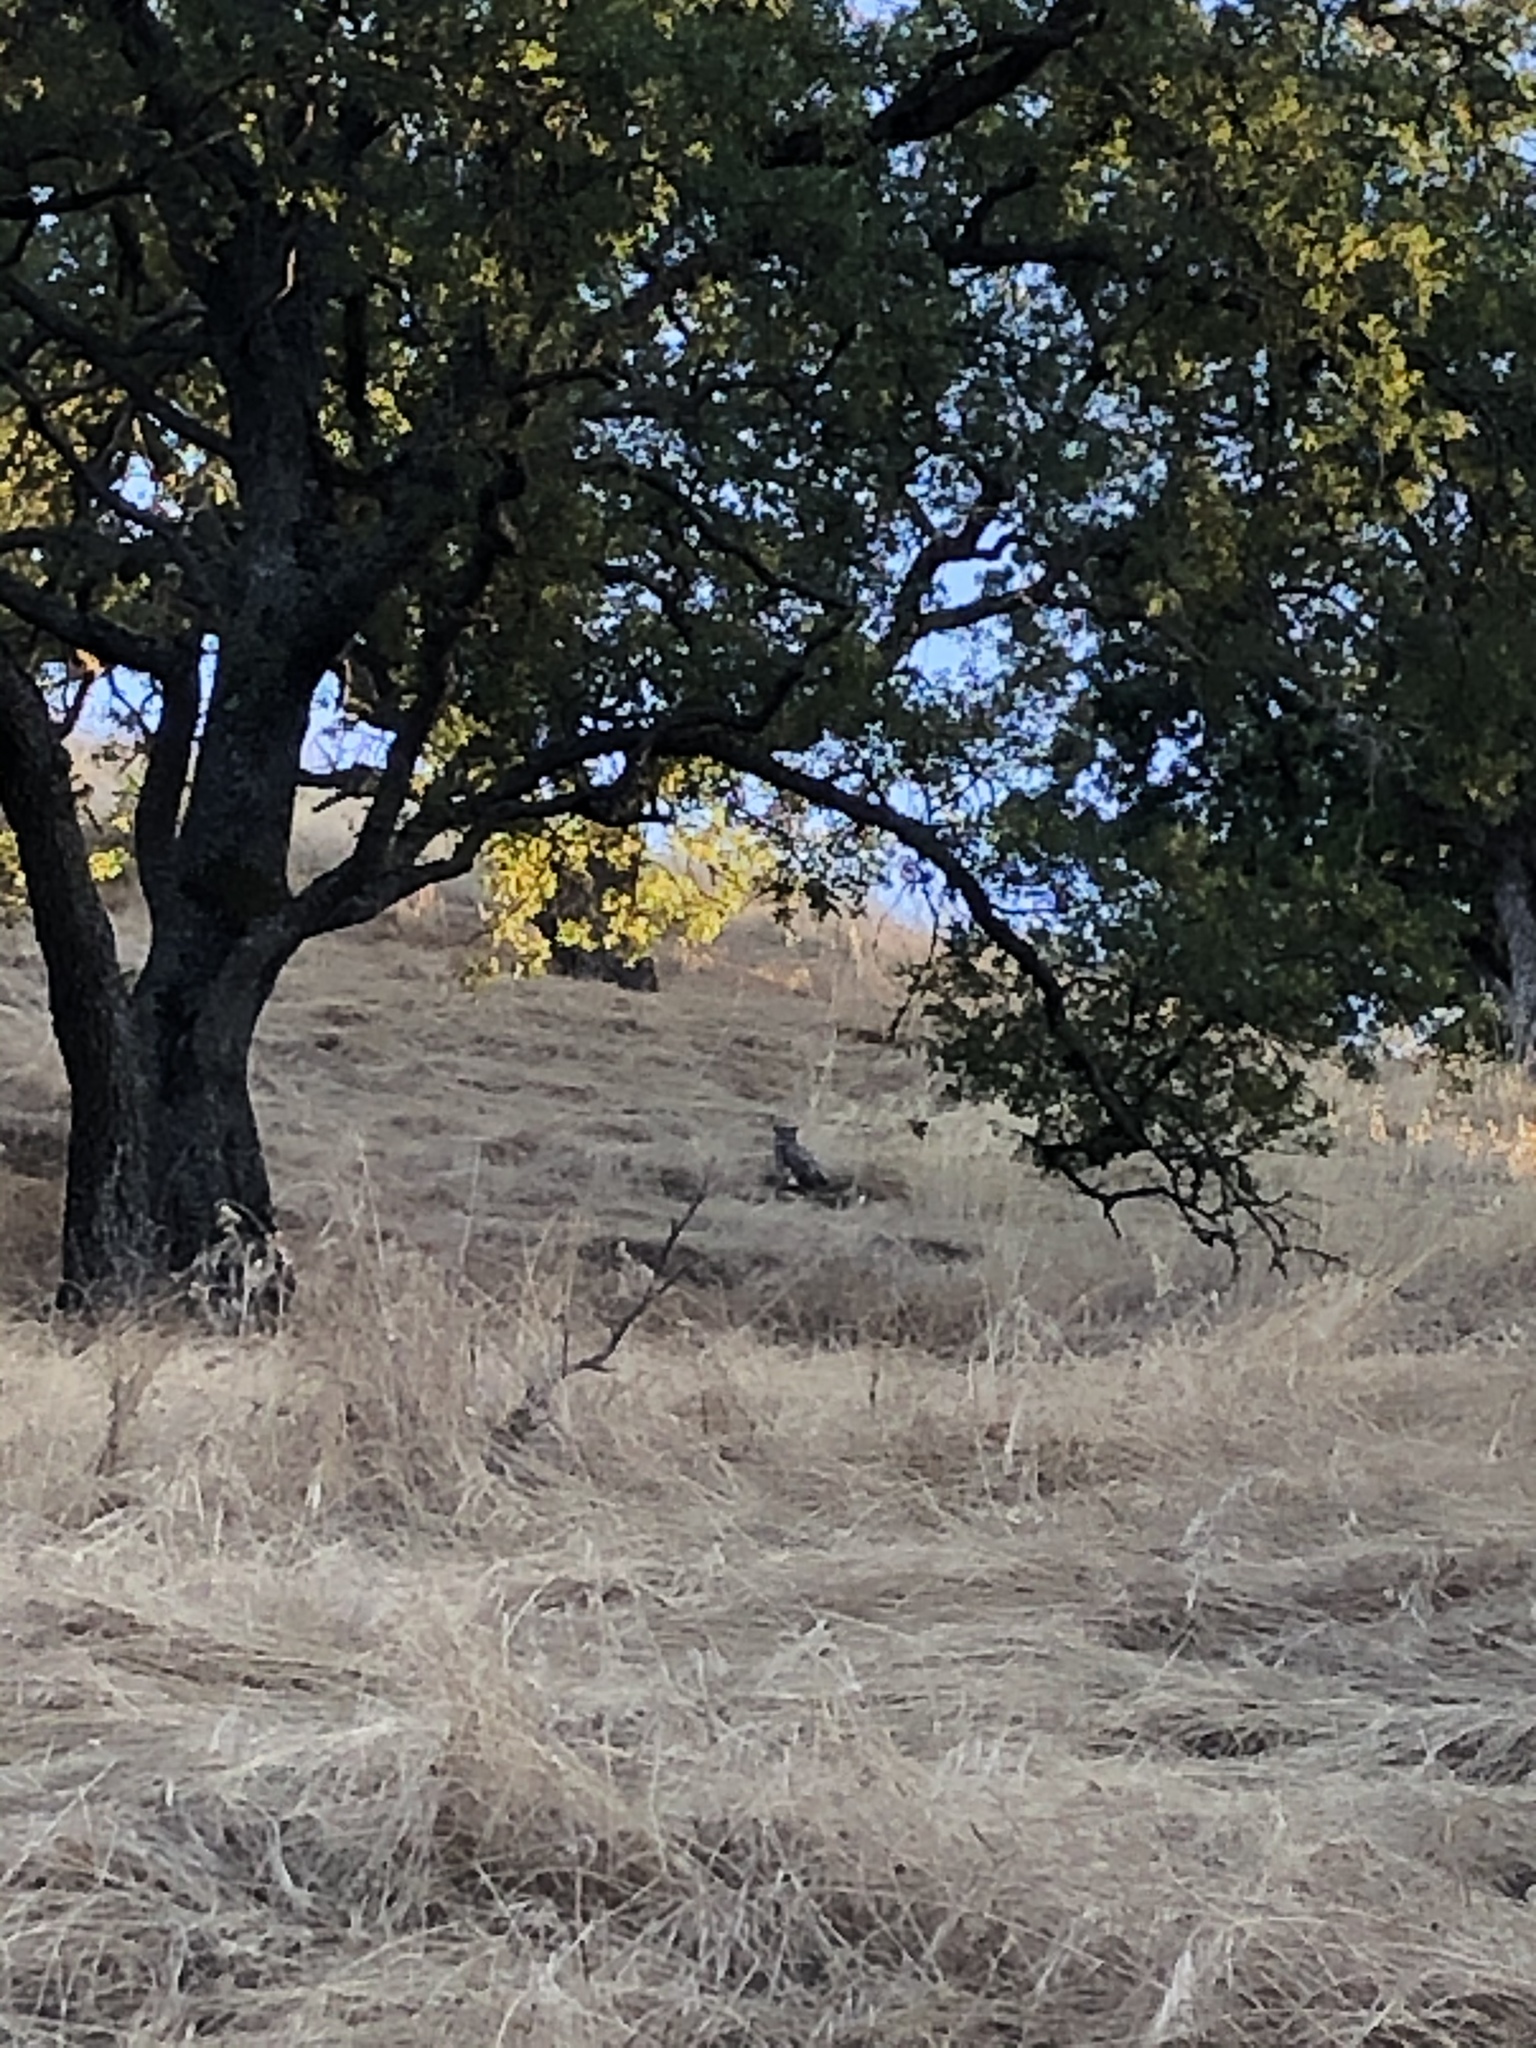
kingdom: Animalia
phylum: Chordata
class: Aves
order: Strigiformes
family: Strigidae
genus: Bubo
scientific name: Bubo virginianus
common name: Great horned owl
